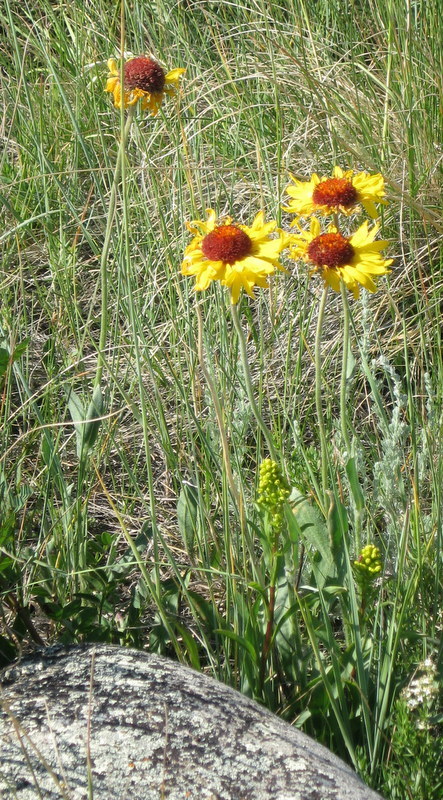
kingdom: Plantae
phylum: Tracheophyta
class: Magnoliopsida
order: Asterales
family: Asteraceae
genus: Gaillardia
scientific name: Gaillardia aristata
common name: Blanket-flower
